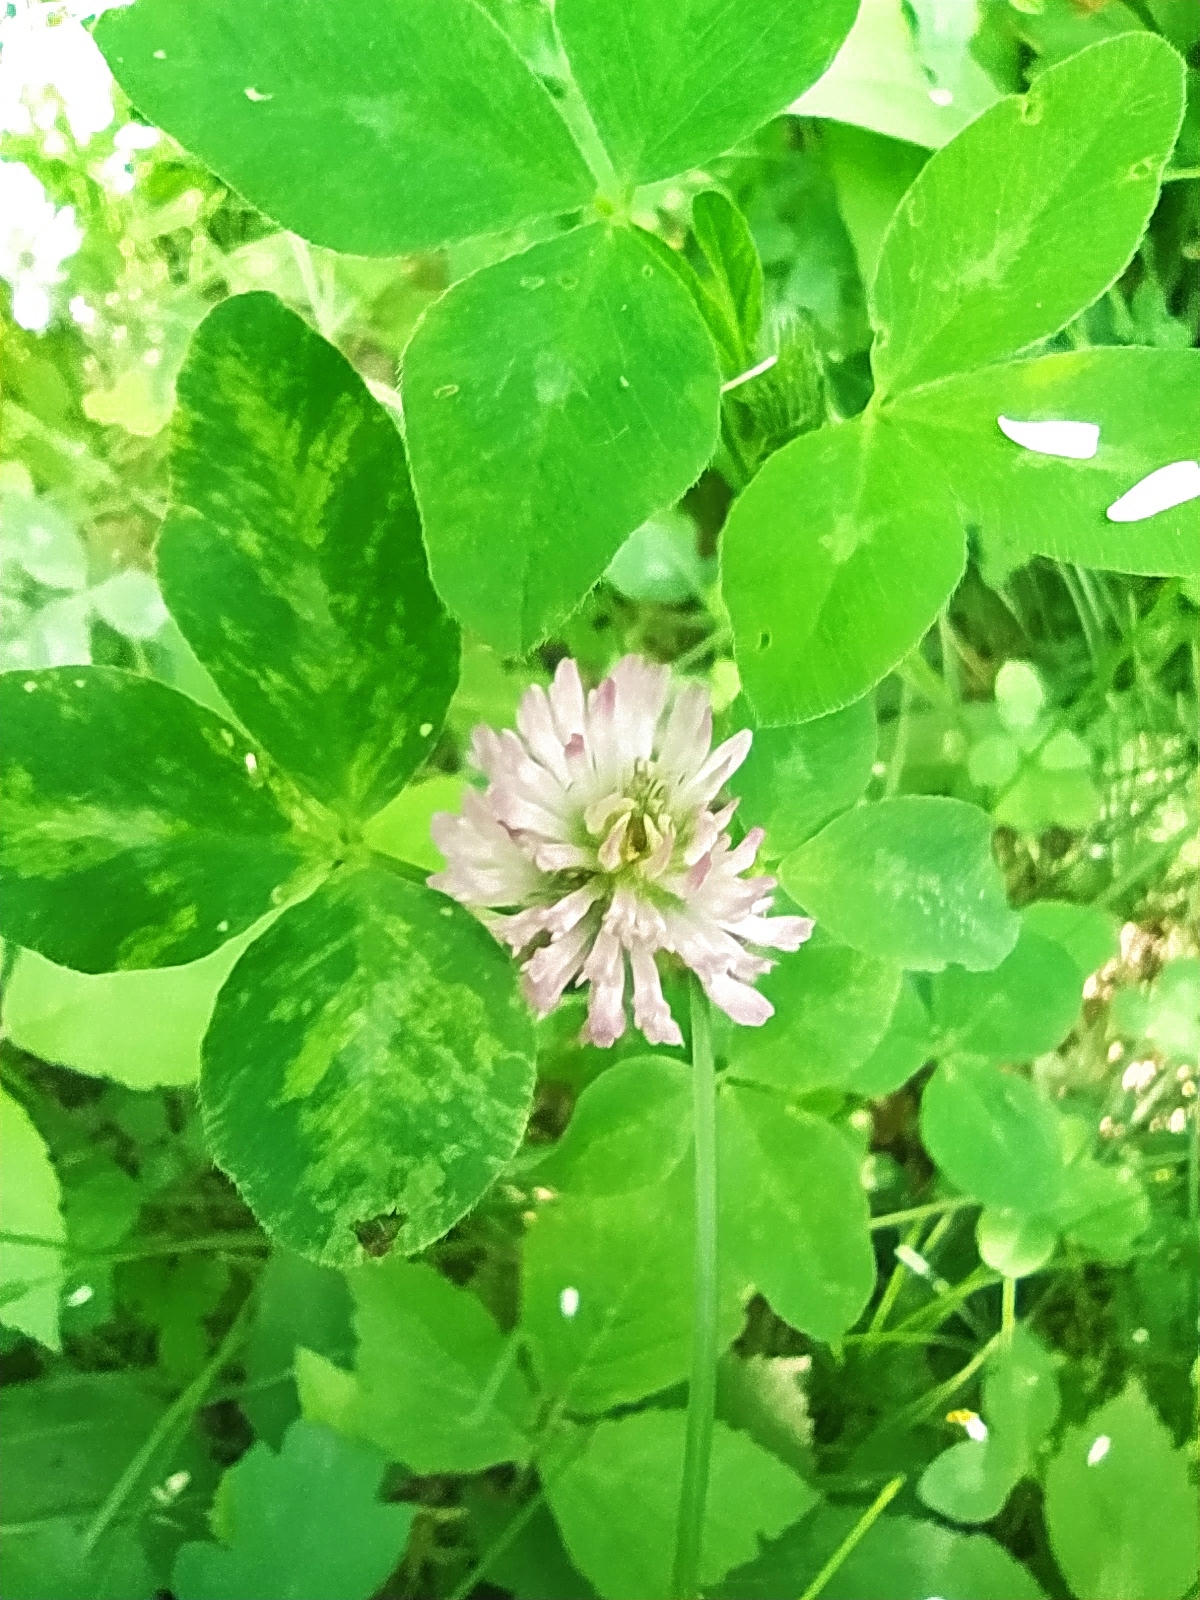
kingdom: Plantae
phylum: Tracheophyta
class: Magnoliopsida
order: Fabales
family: Fabaceae
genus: Trifolium
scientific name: Trifolium pratense
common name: Red clover
